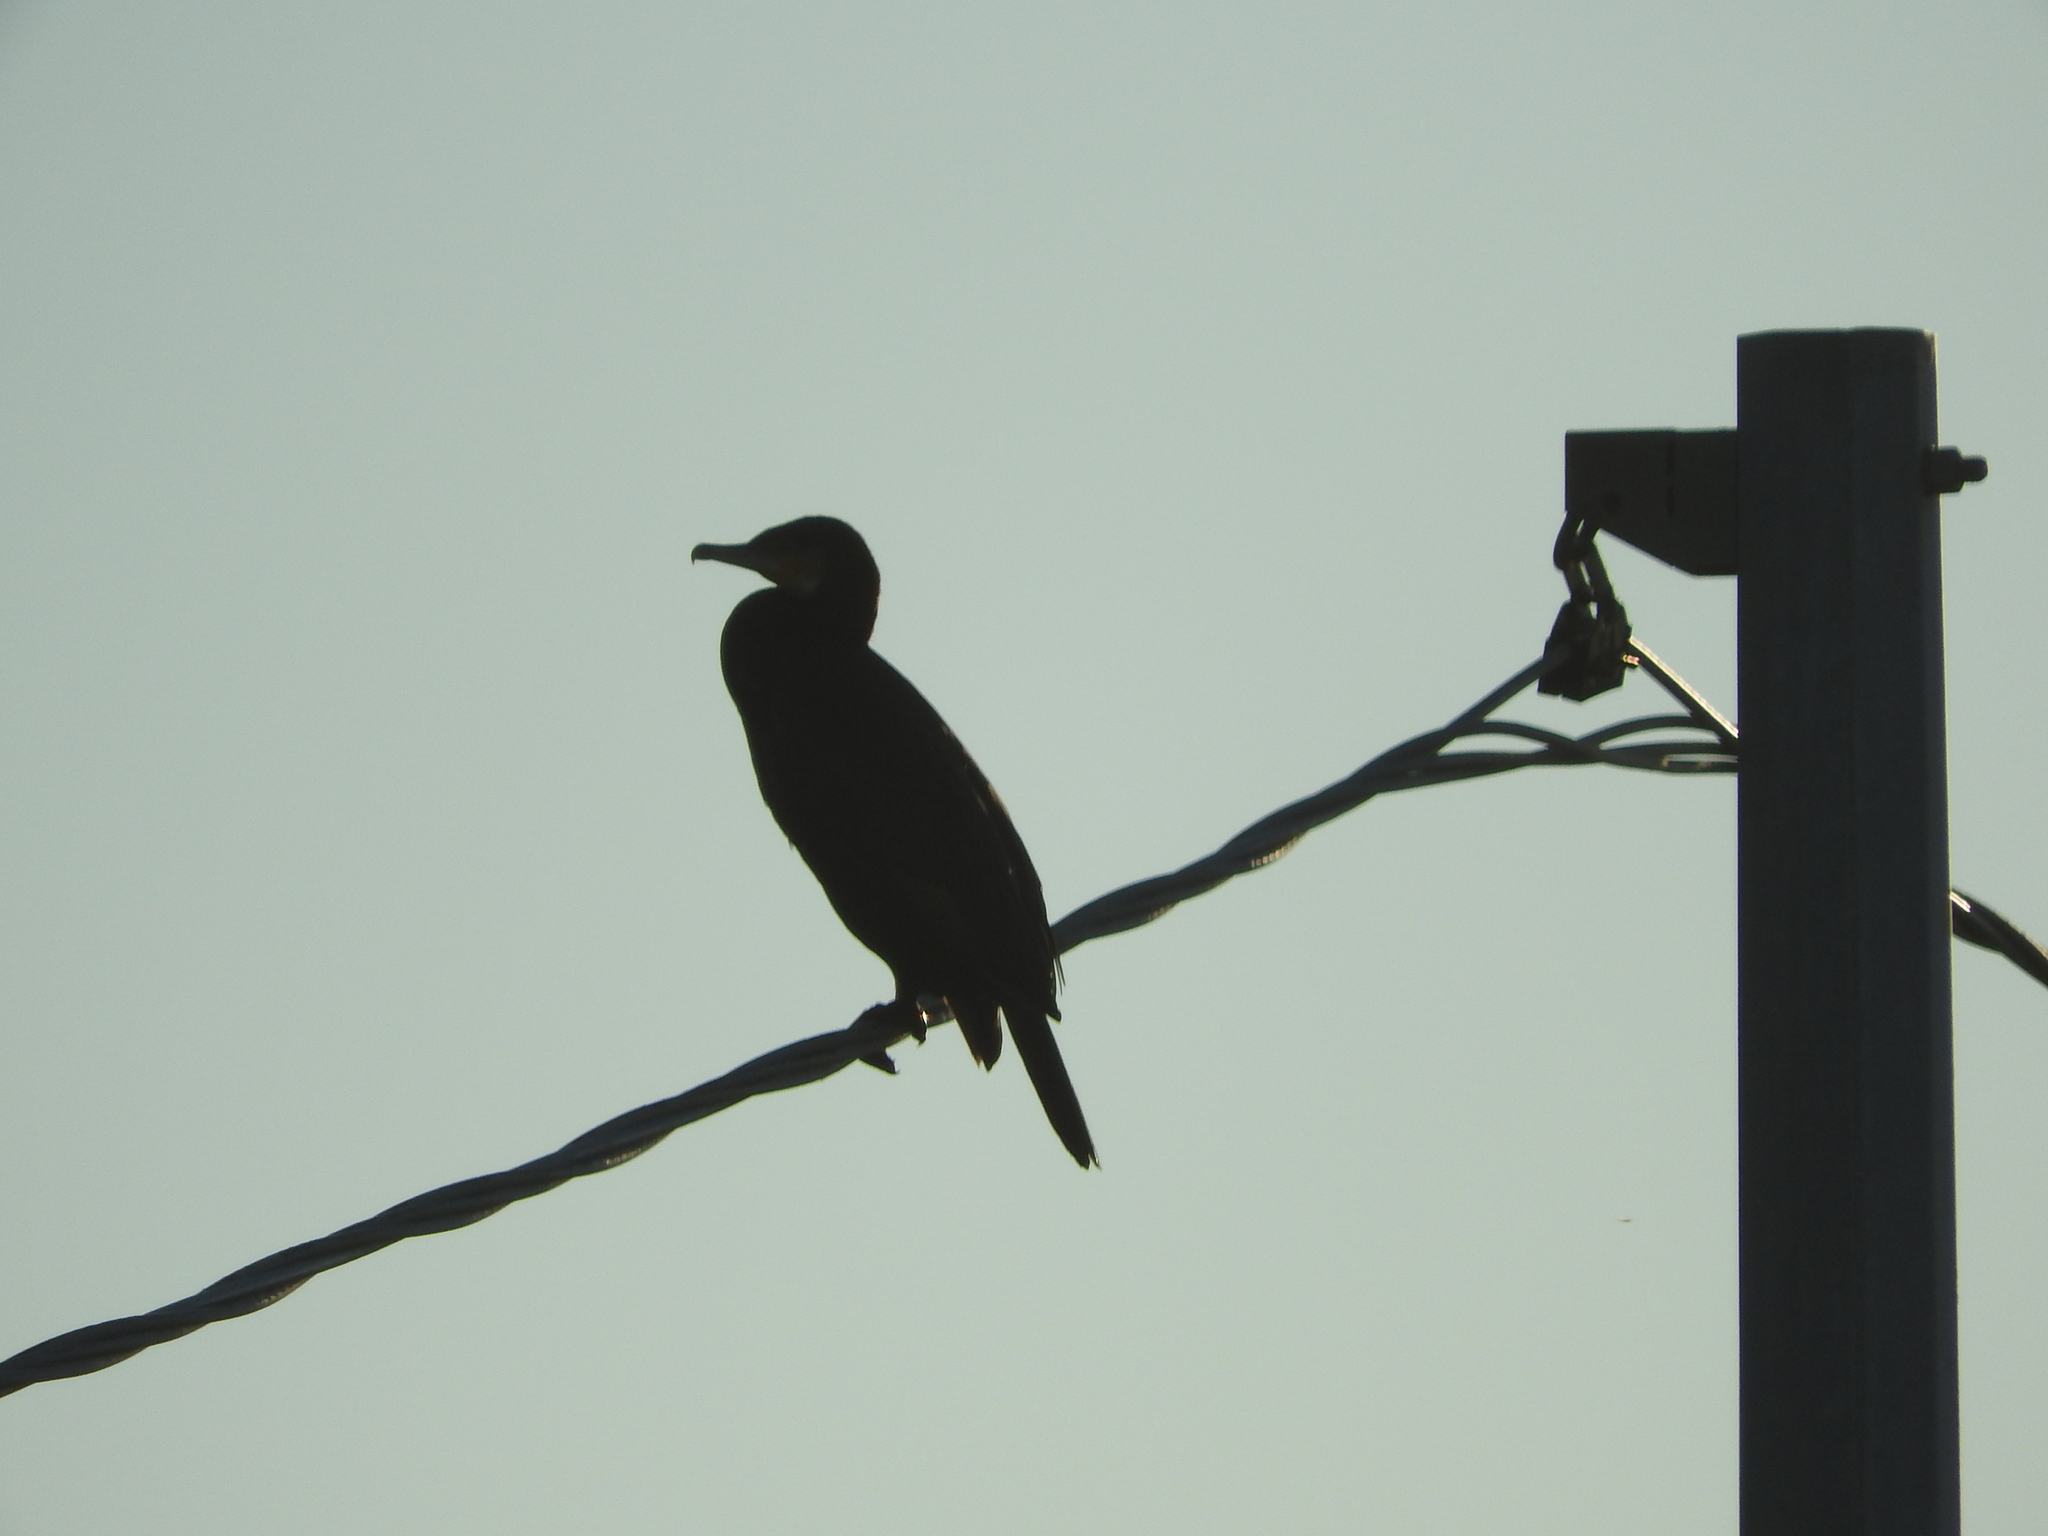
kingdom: Animalia
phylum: Chordata
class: Aves
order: Suliformes
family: Phalacrocoracidae
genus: Phalacrocorax
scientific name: Phalacrocorax carbo
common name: Great cormorant
